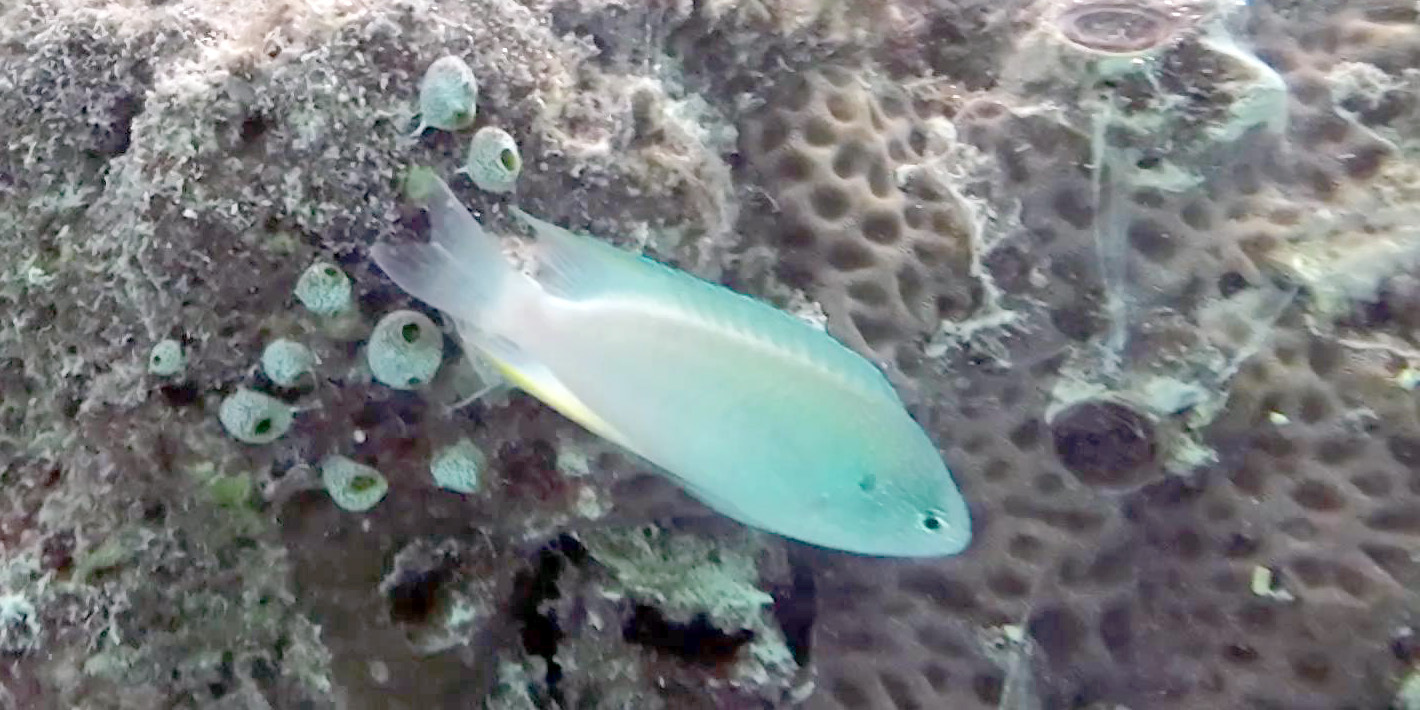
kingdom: Animalia
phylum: Chordata
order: Perciformes
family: Pomacentridae
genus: Pomacentrus
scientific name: Pomacentrus pavo
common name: Sapphire damsel
